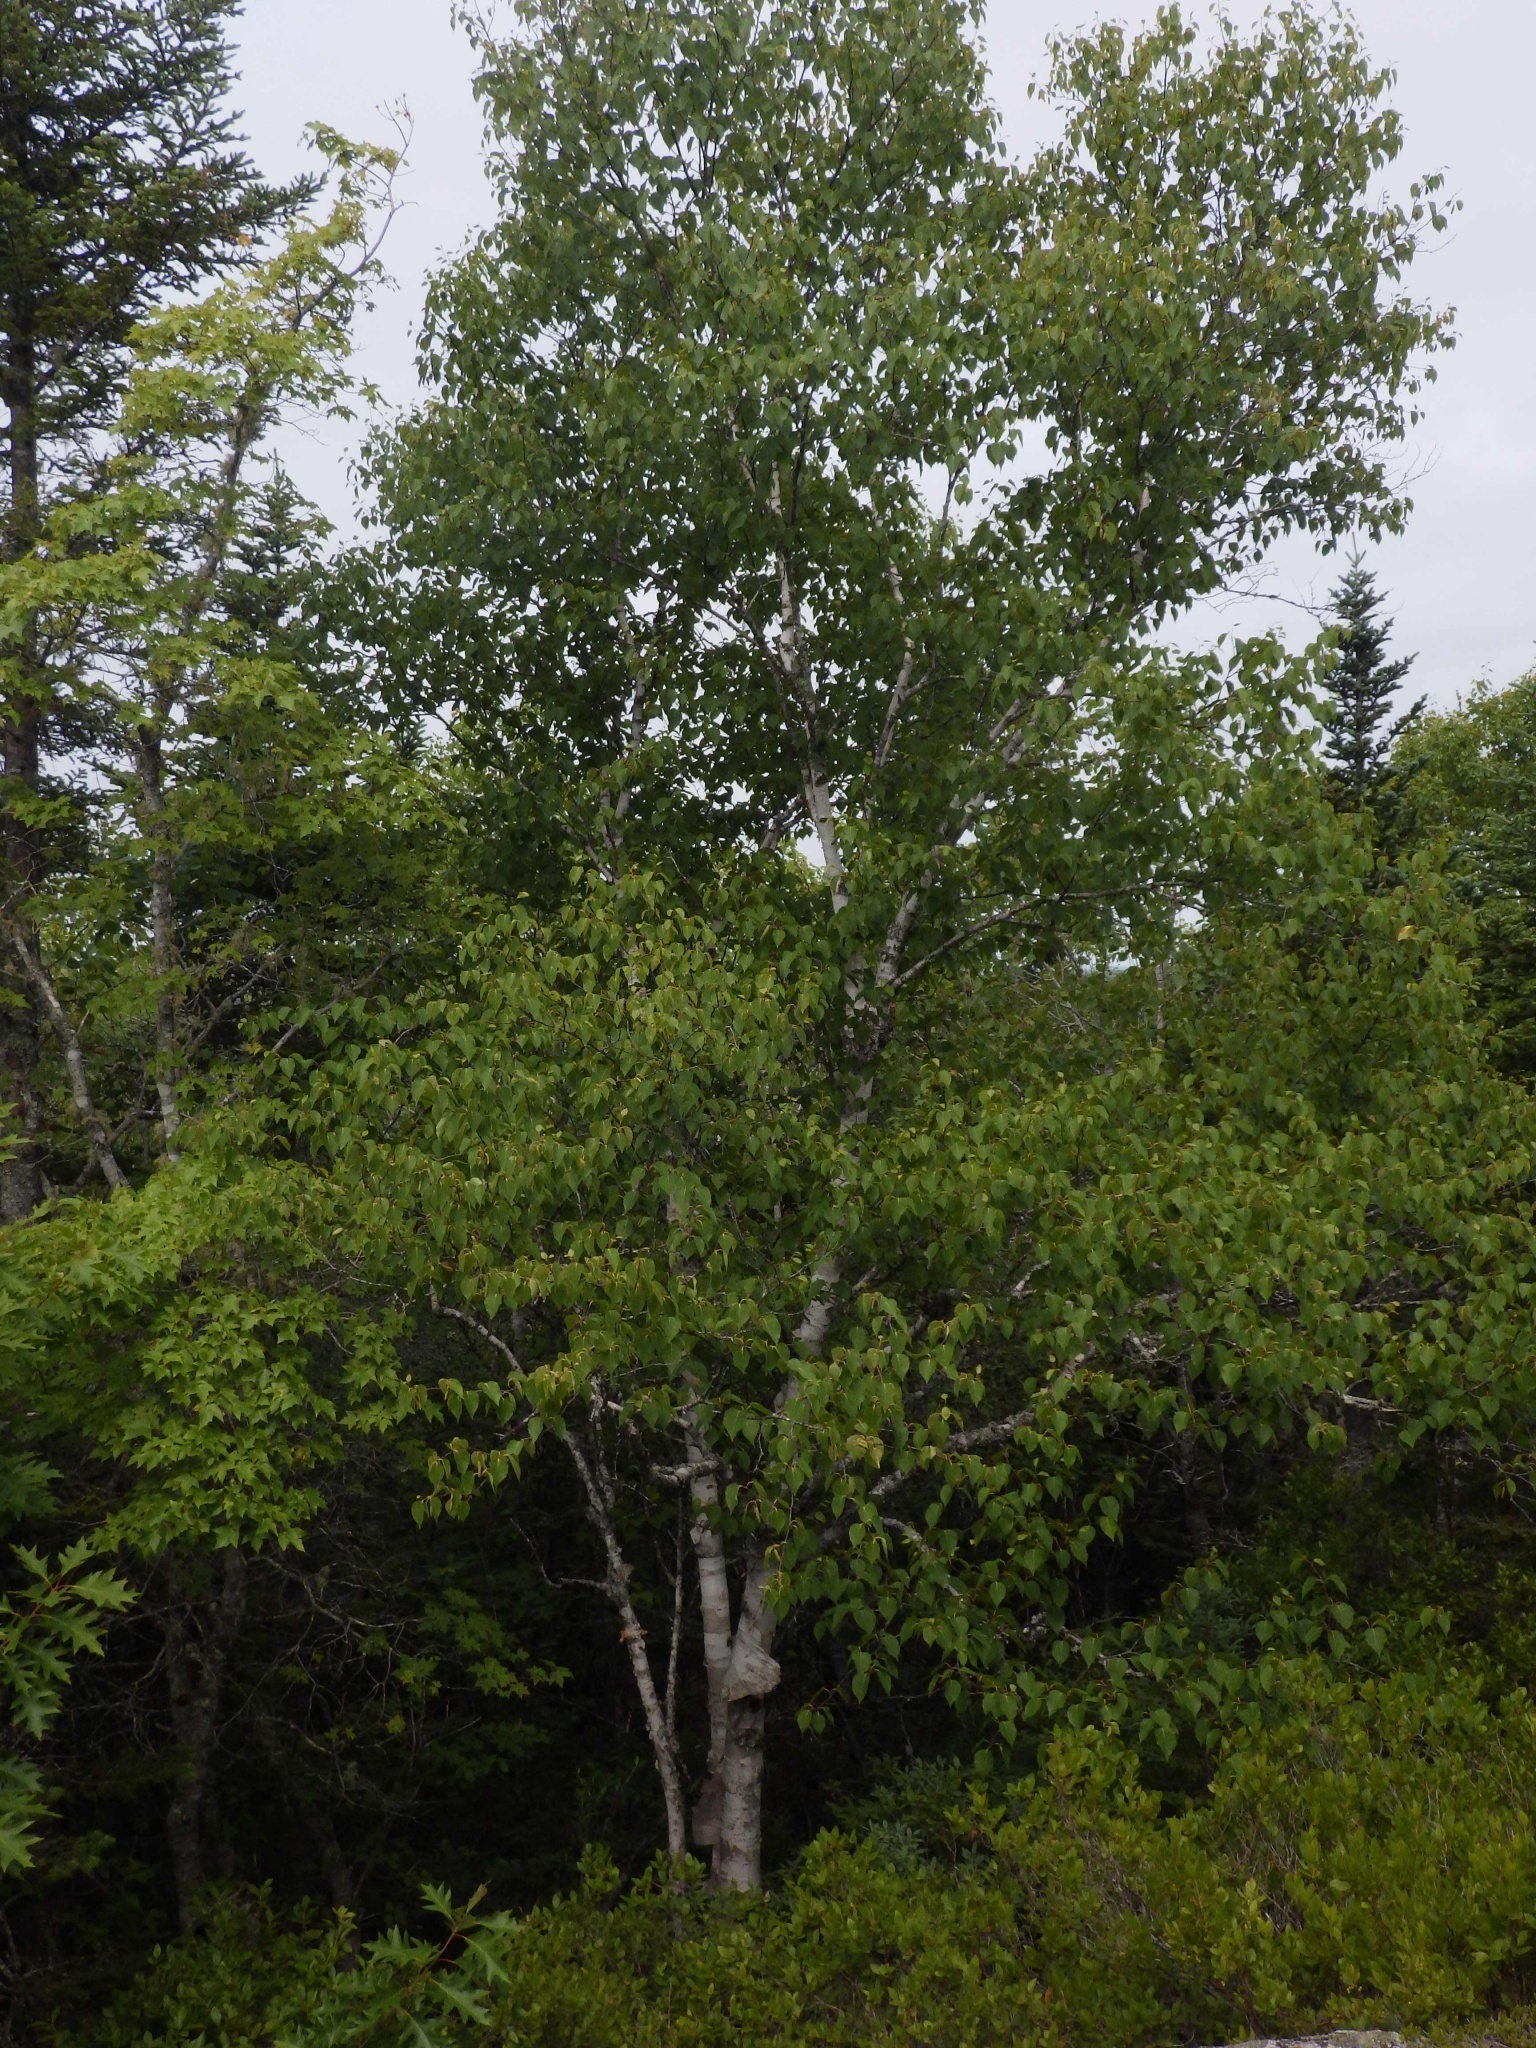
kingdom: Plantae
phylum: Tracheophyta
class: Magnoliopsida
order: Fagales
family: Betulaceae
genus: Betula
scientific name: Betula papyrifera
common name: Paper birch
